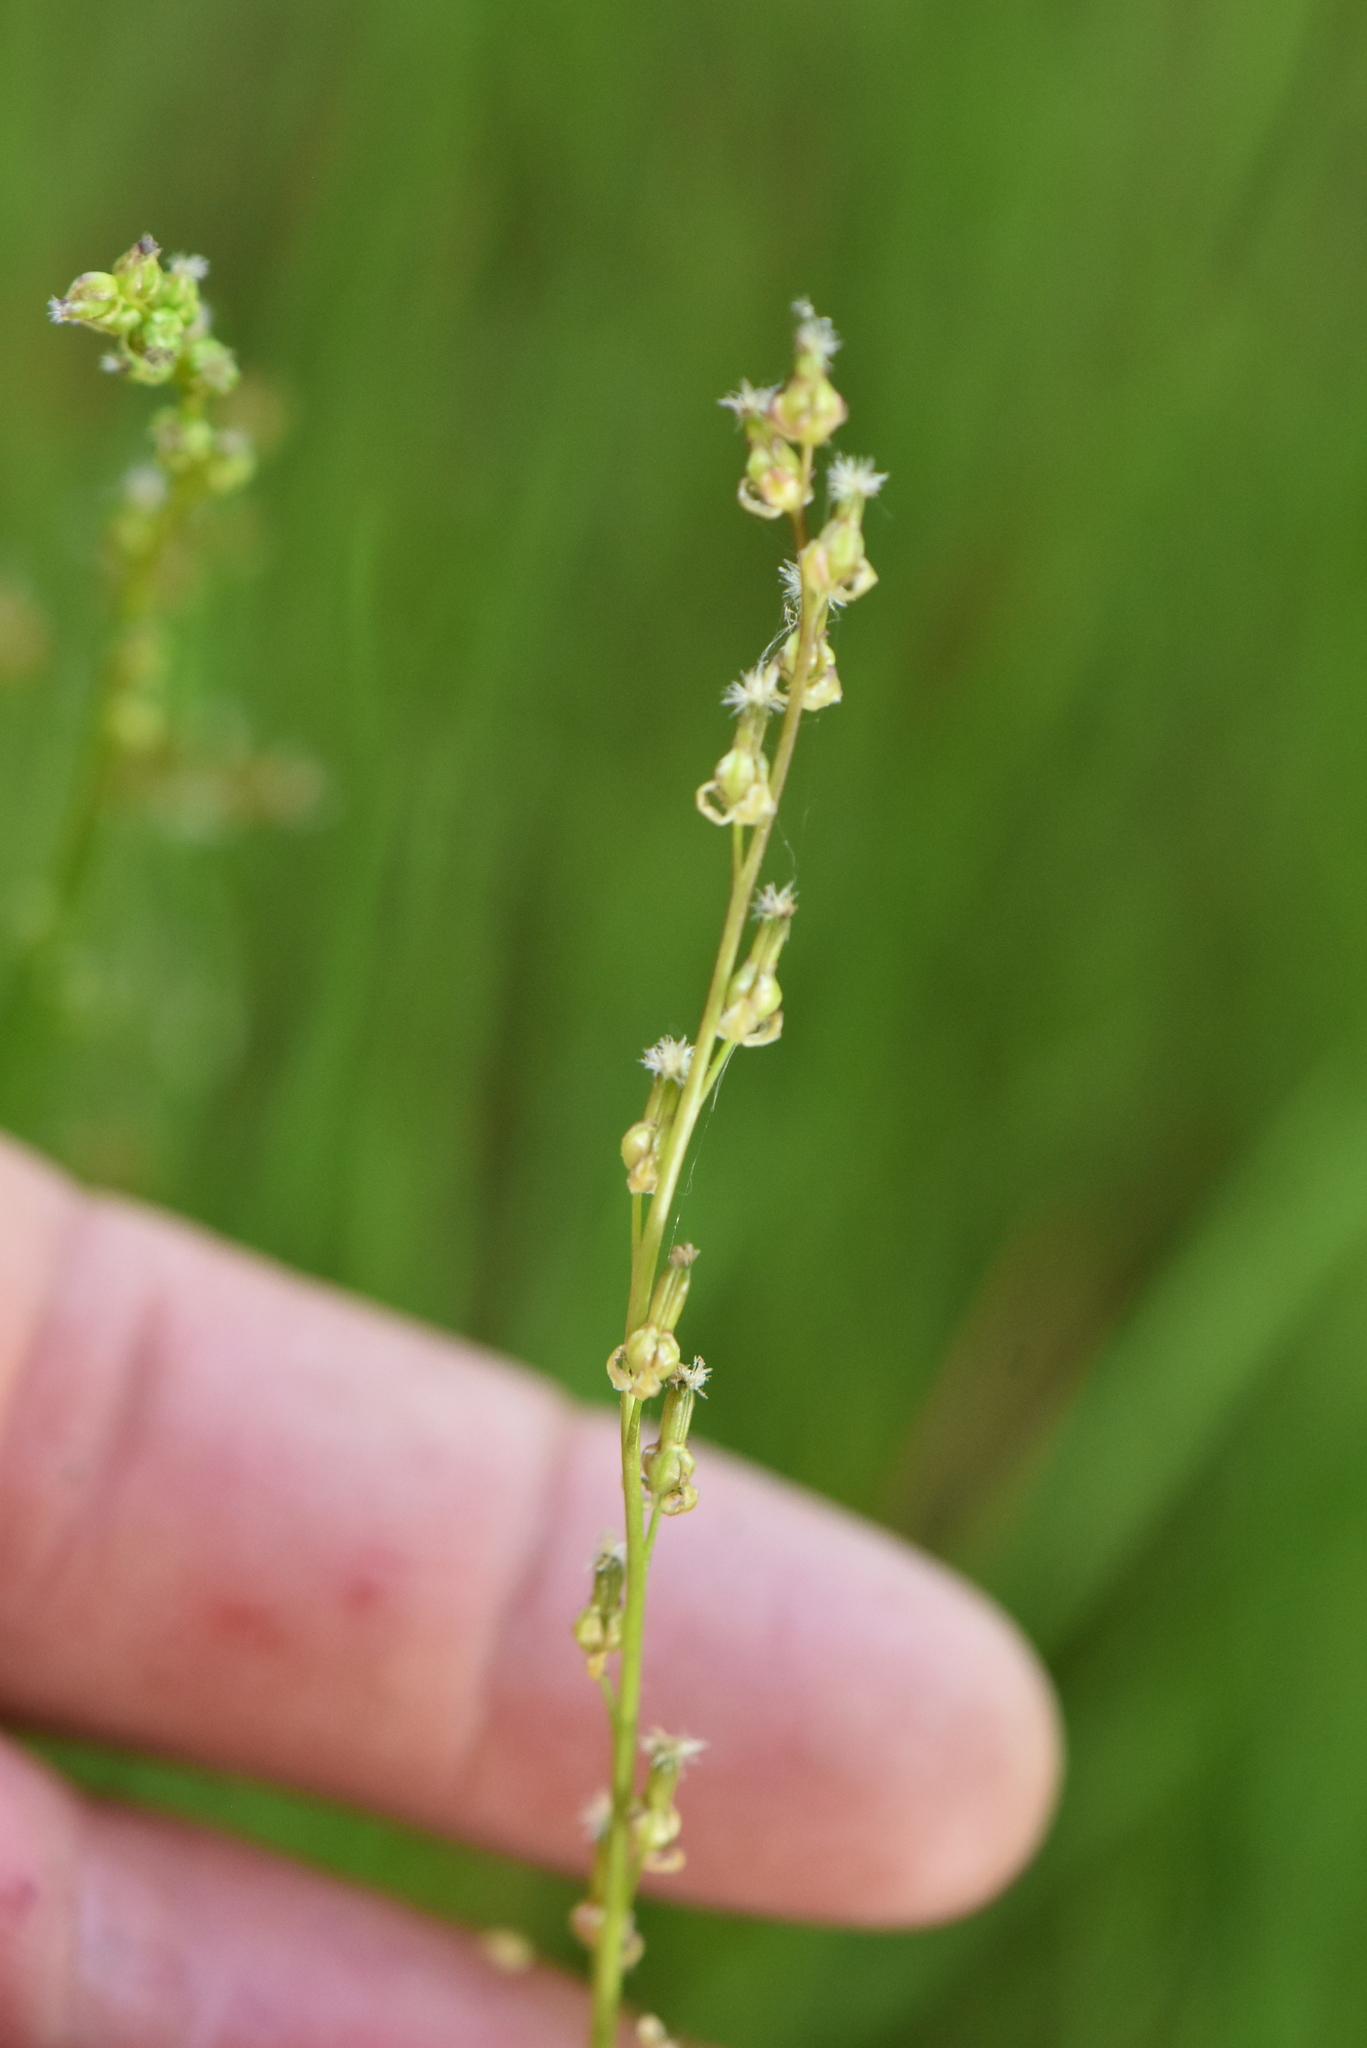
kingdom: Plantae
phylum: Tracheophyta
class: Liliopsida
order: Alismatales
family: Juncaginaceae
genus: Triglochin
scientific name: Triglochin palustris
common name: Marsh arrowgrass
